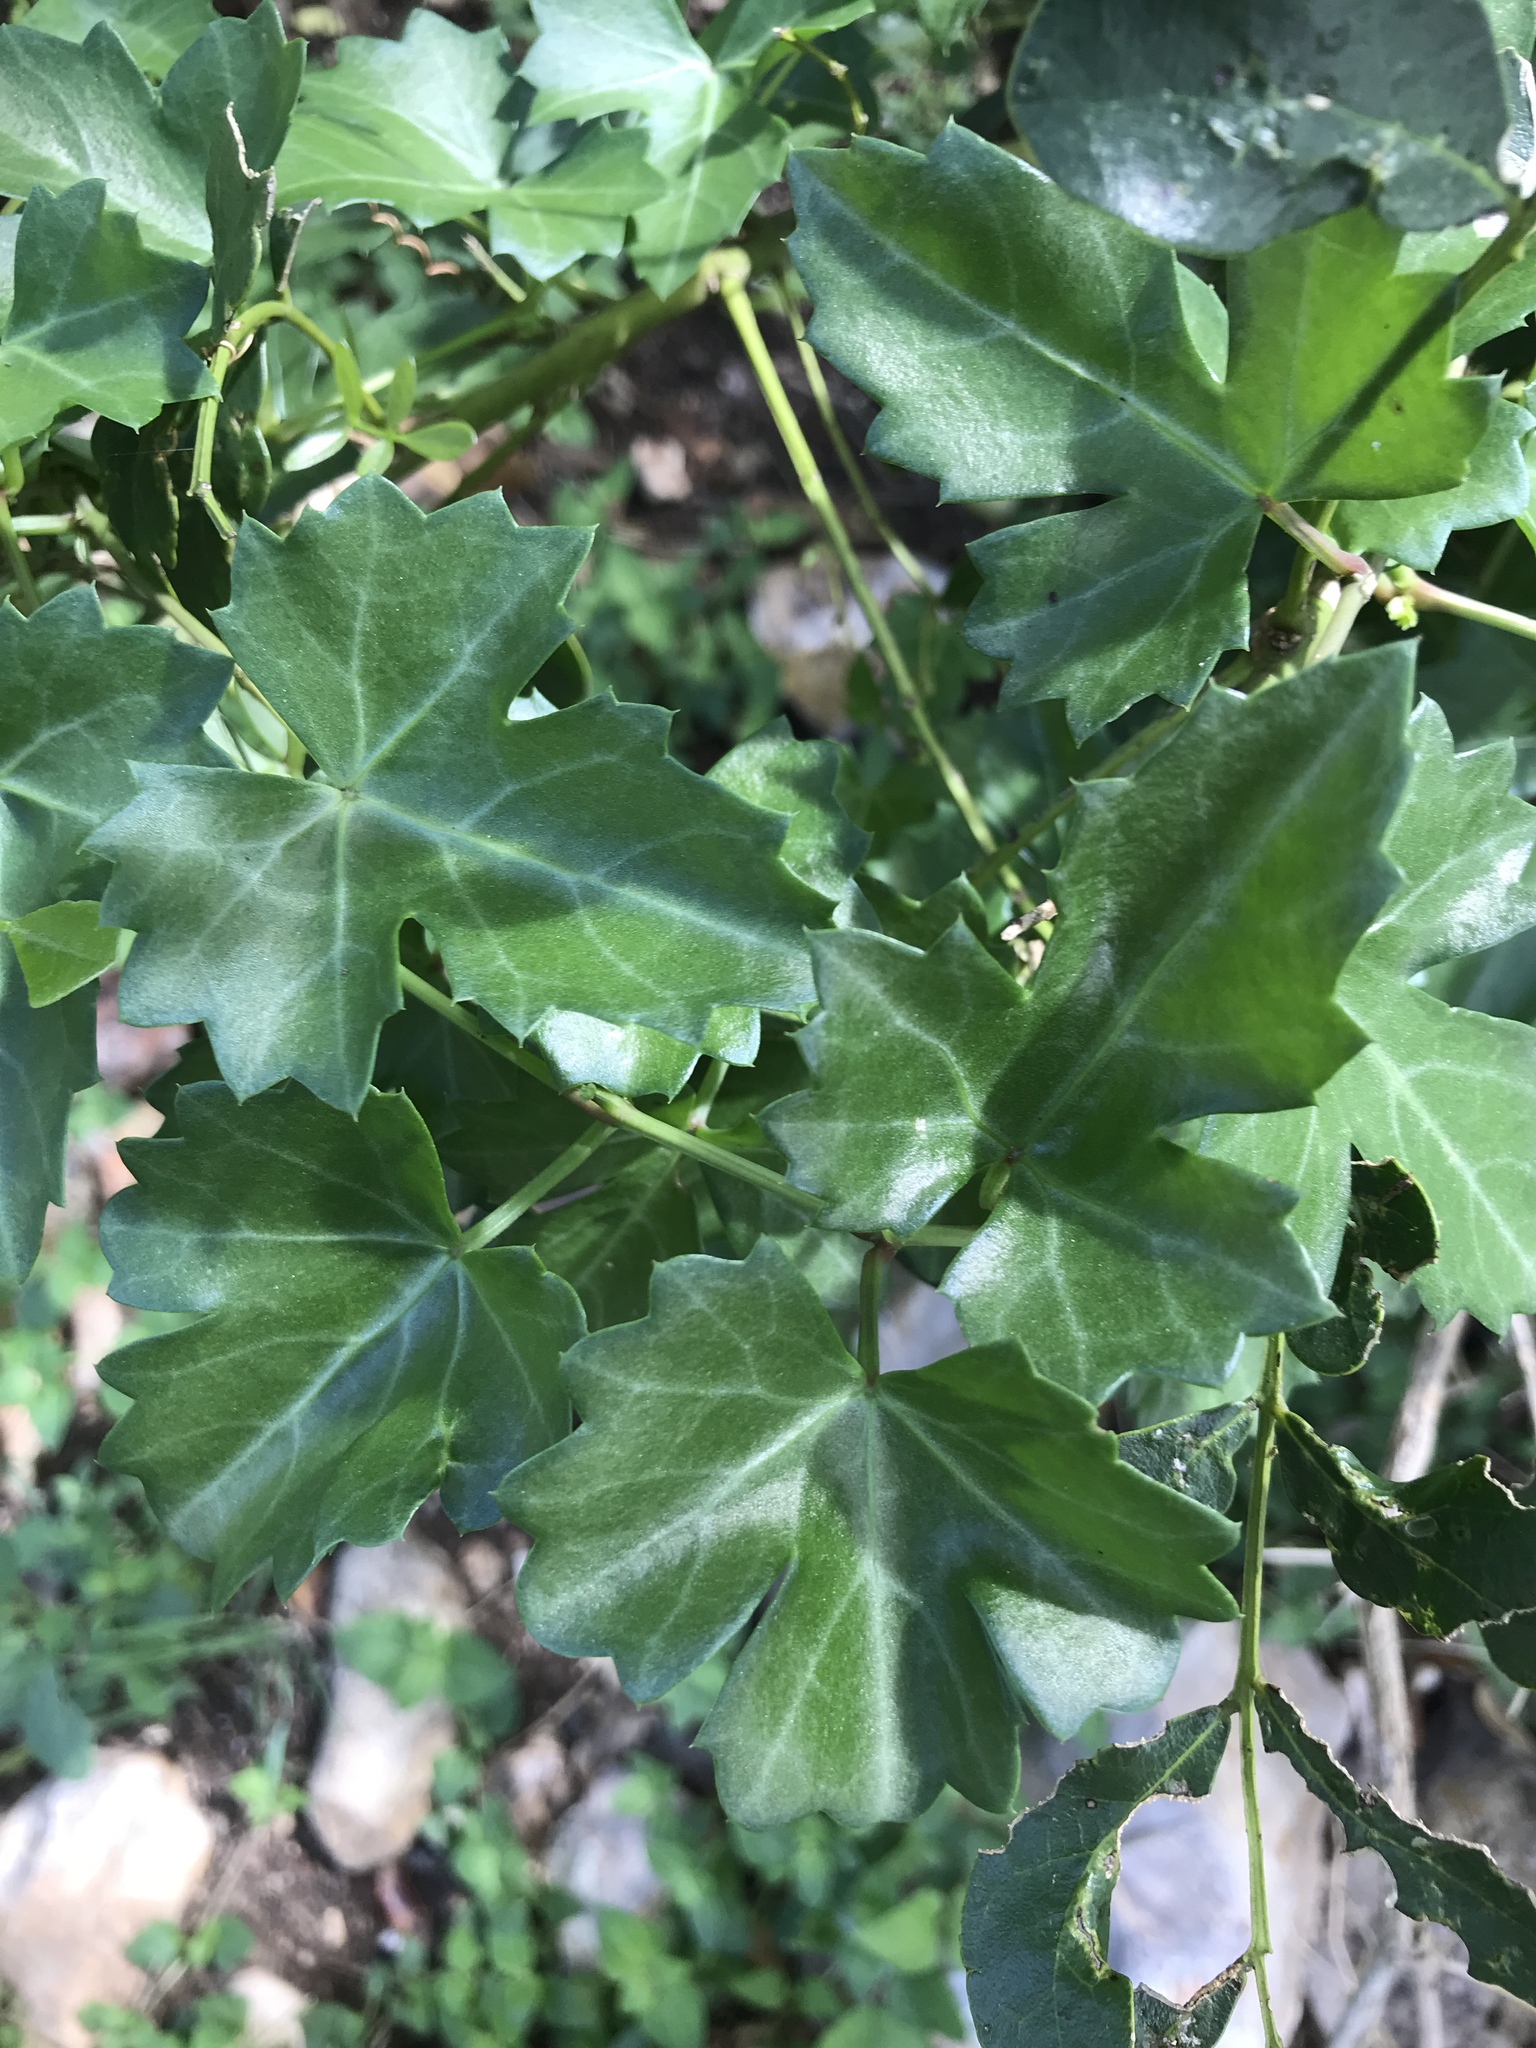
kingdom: Plantae
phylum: Tracheophyta
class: Magnoliopsida
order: Vitales
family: Vitaceae
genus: Cissus
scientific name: Cissus trifoliata
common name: Vine-sorrel
